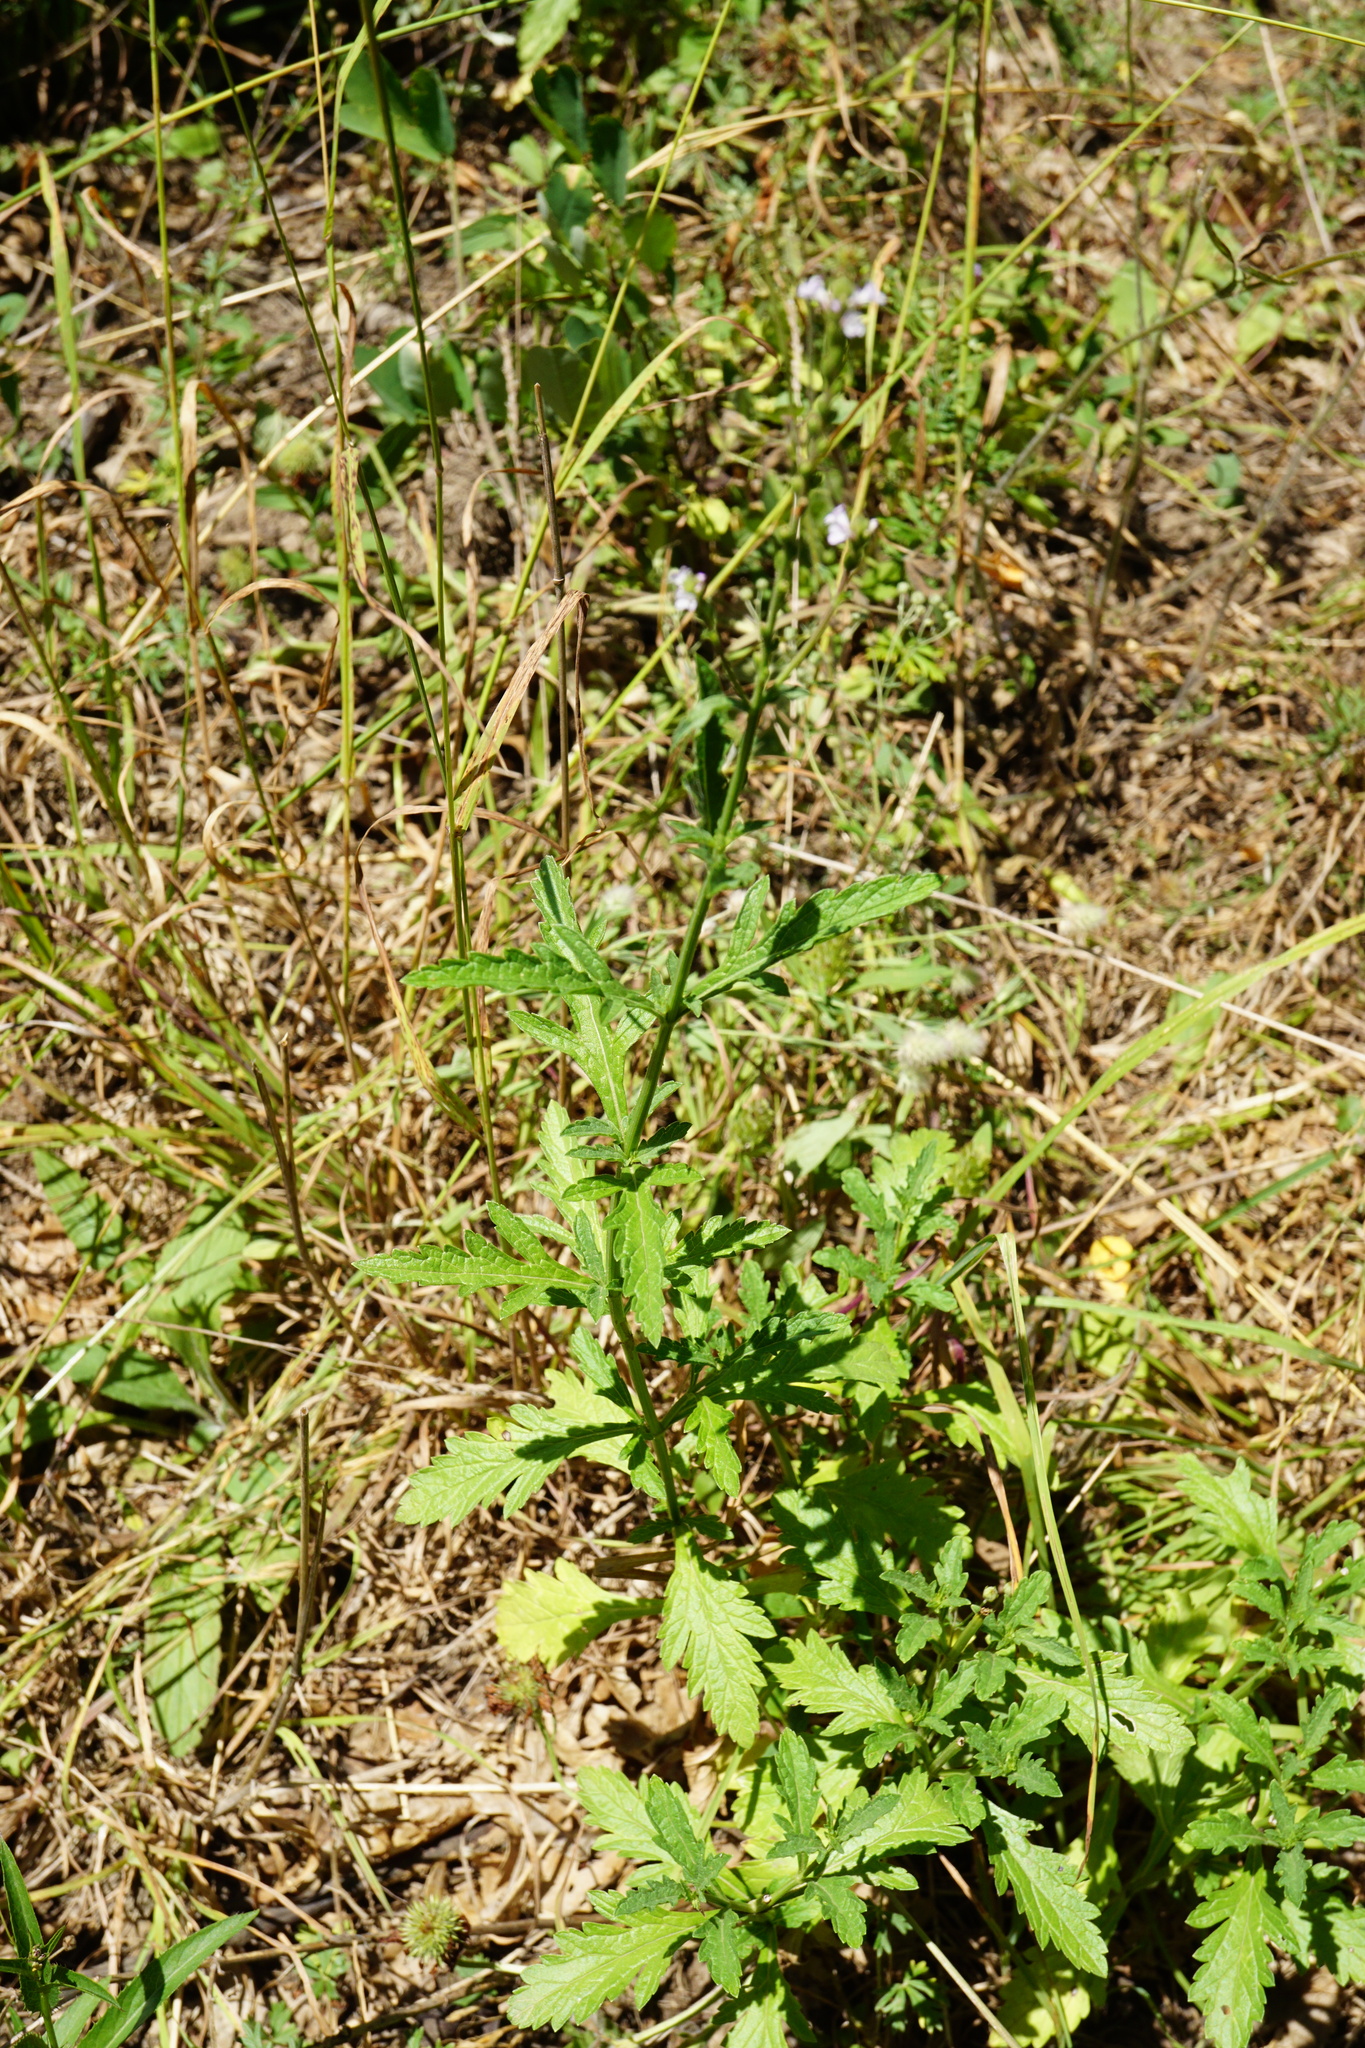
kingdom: Plantae
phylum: Tracheophyta
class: Magnoliopsida
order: Lamiales
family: Verbenaceae
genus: Verbena
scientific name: Verbena officinalis
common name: Vervain
